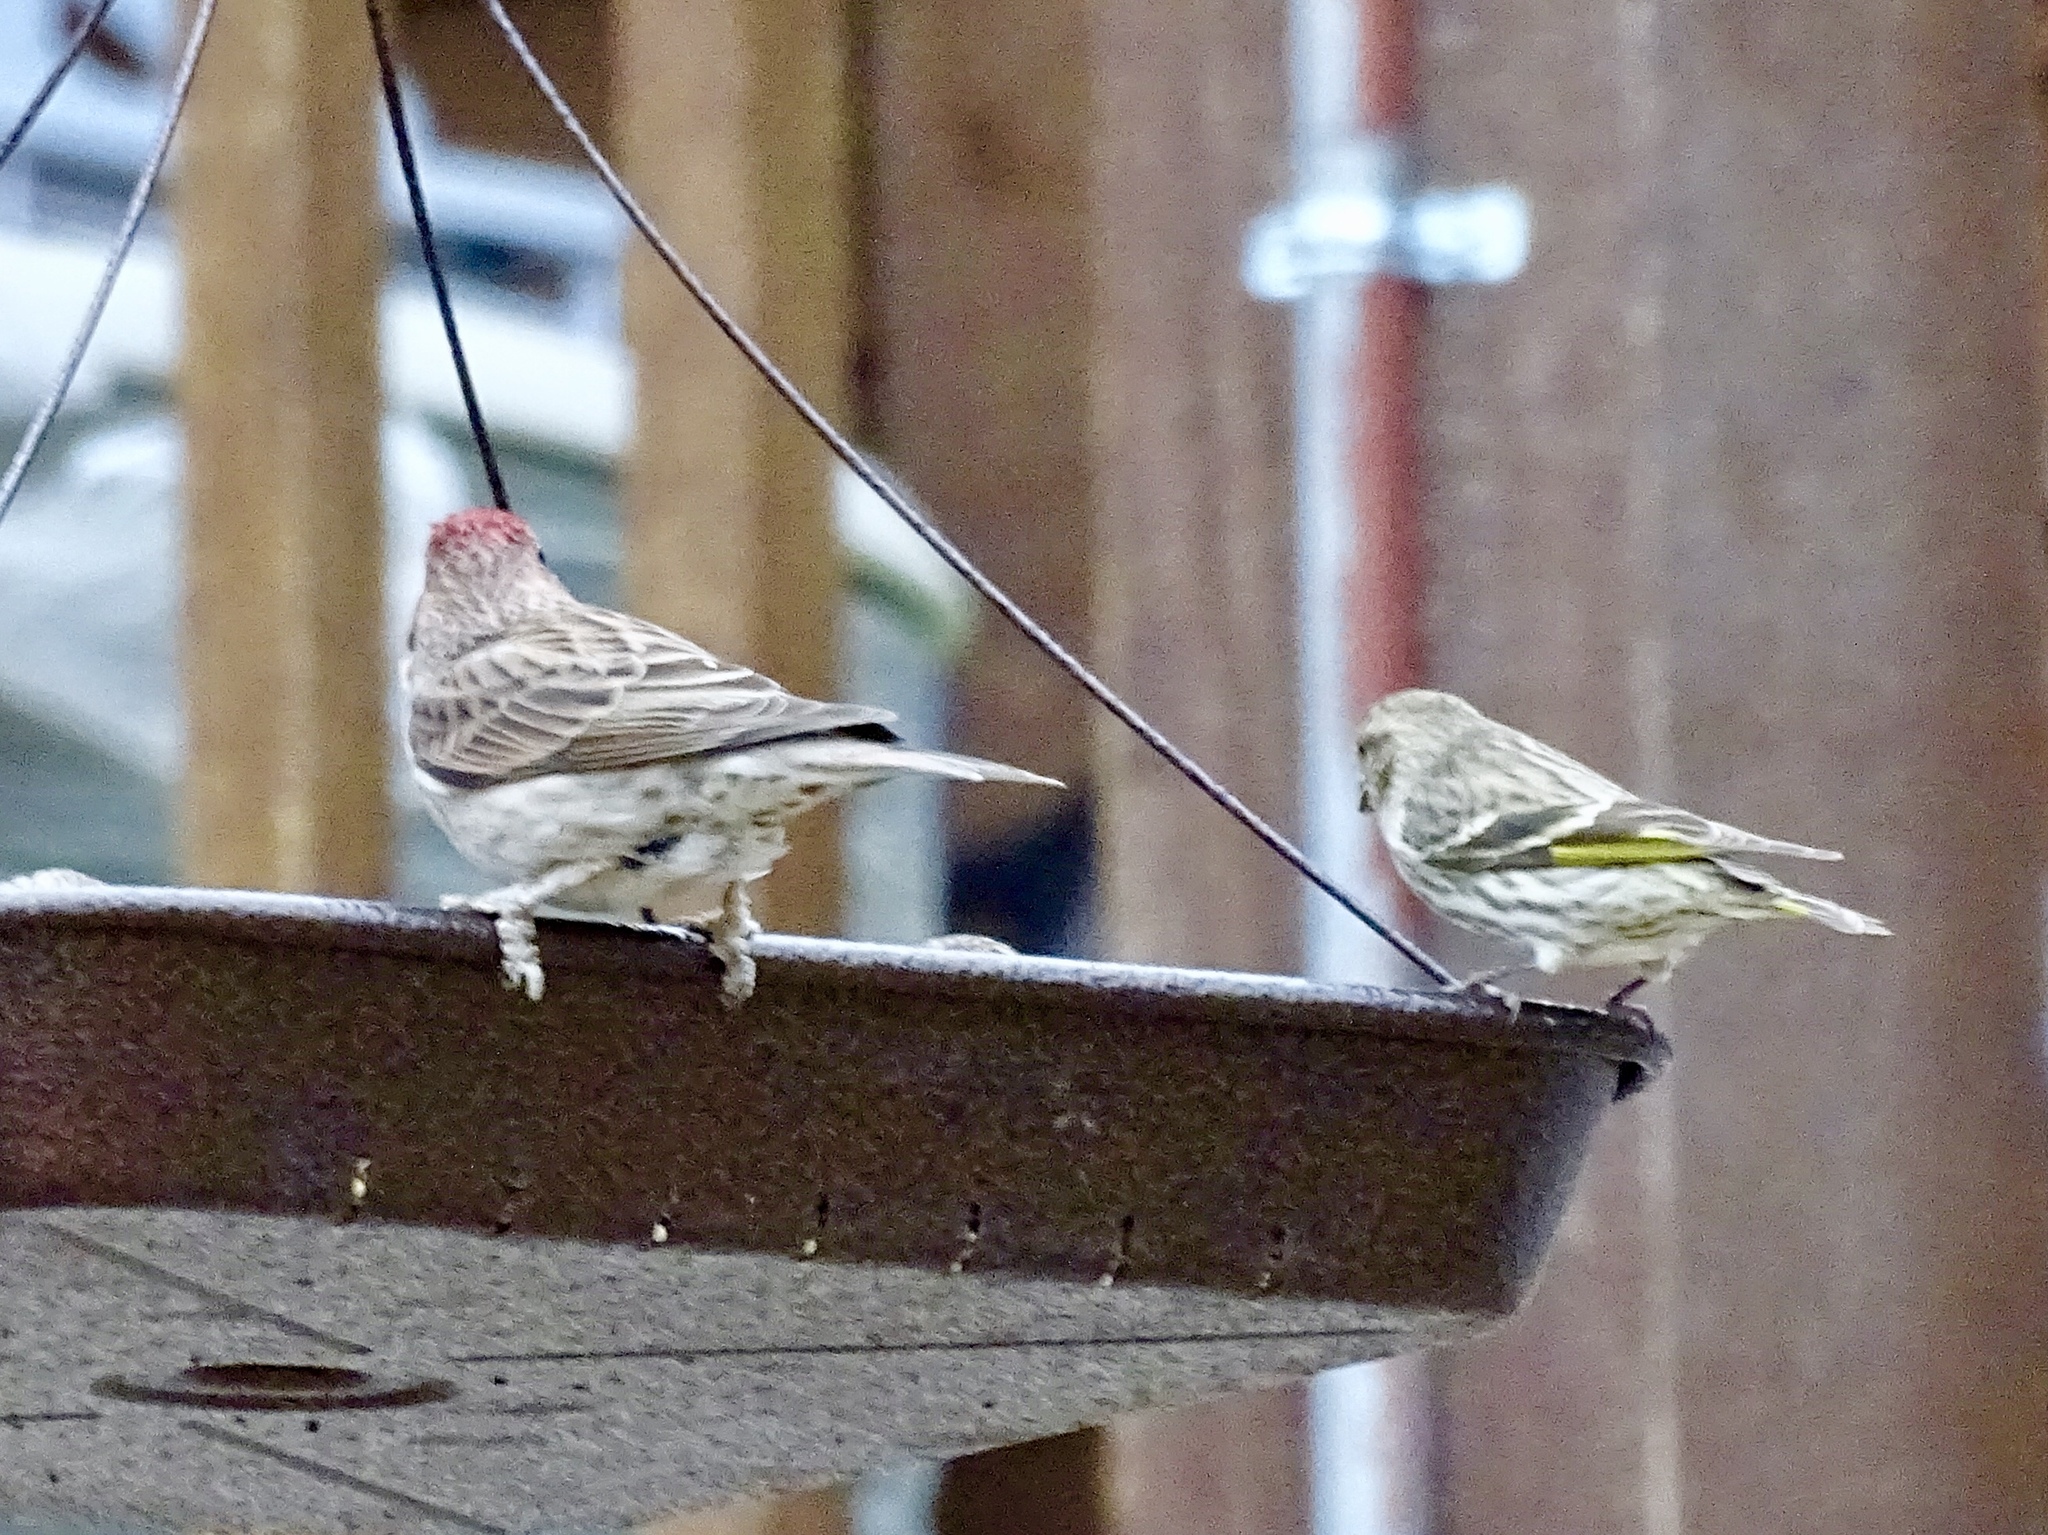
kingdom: Animalia
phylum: Chordata
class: Aves
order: Passeriformes
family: Fringillidae
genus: Haemorhous
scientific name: Haemorhous cassinii
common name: Cassin's finch
